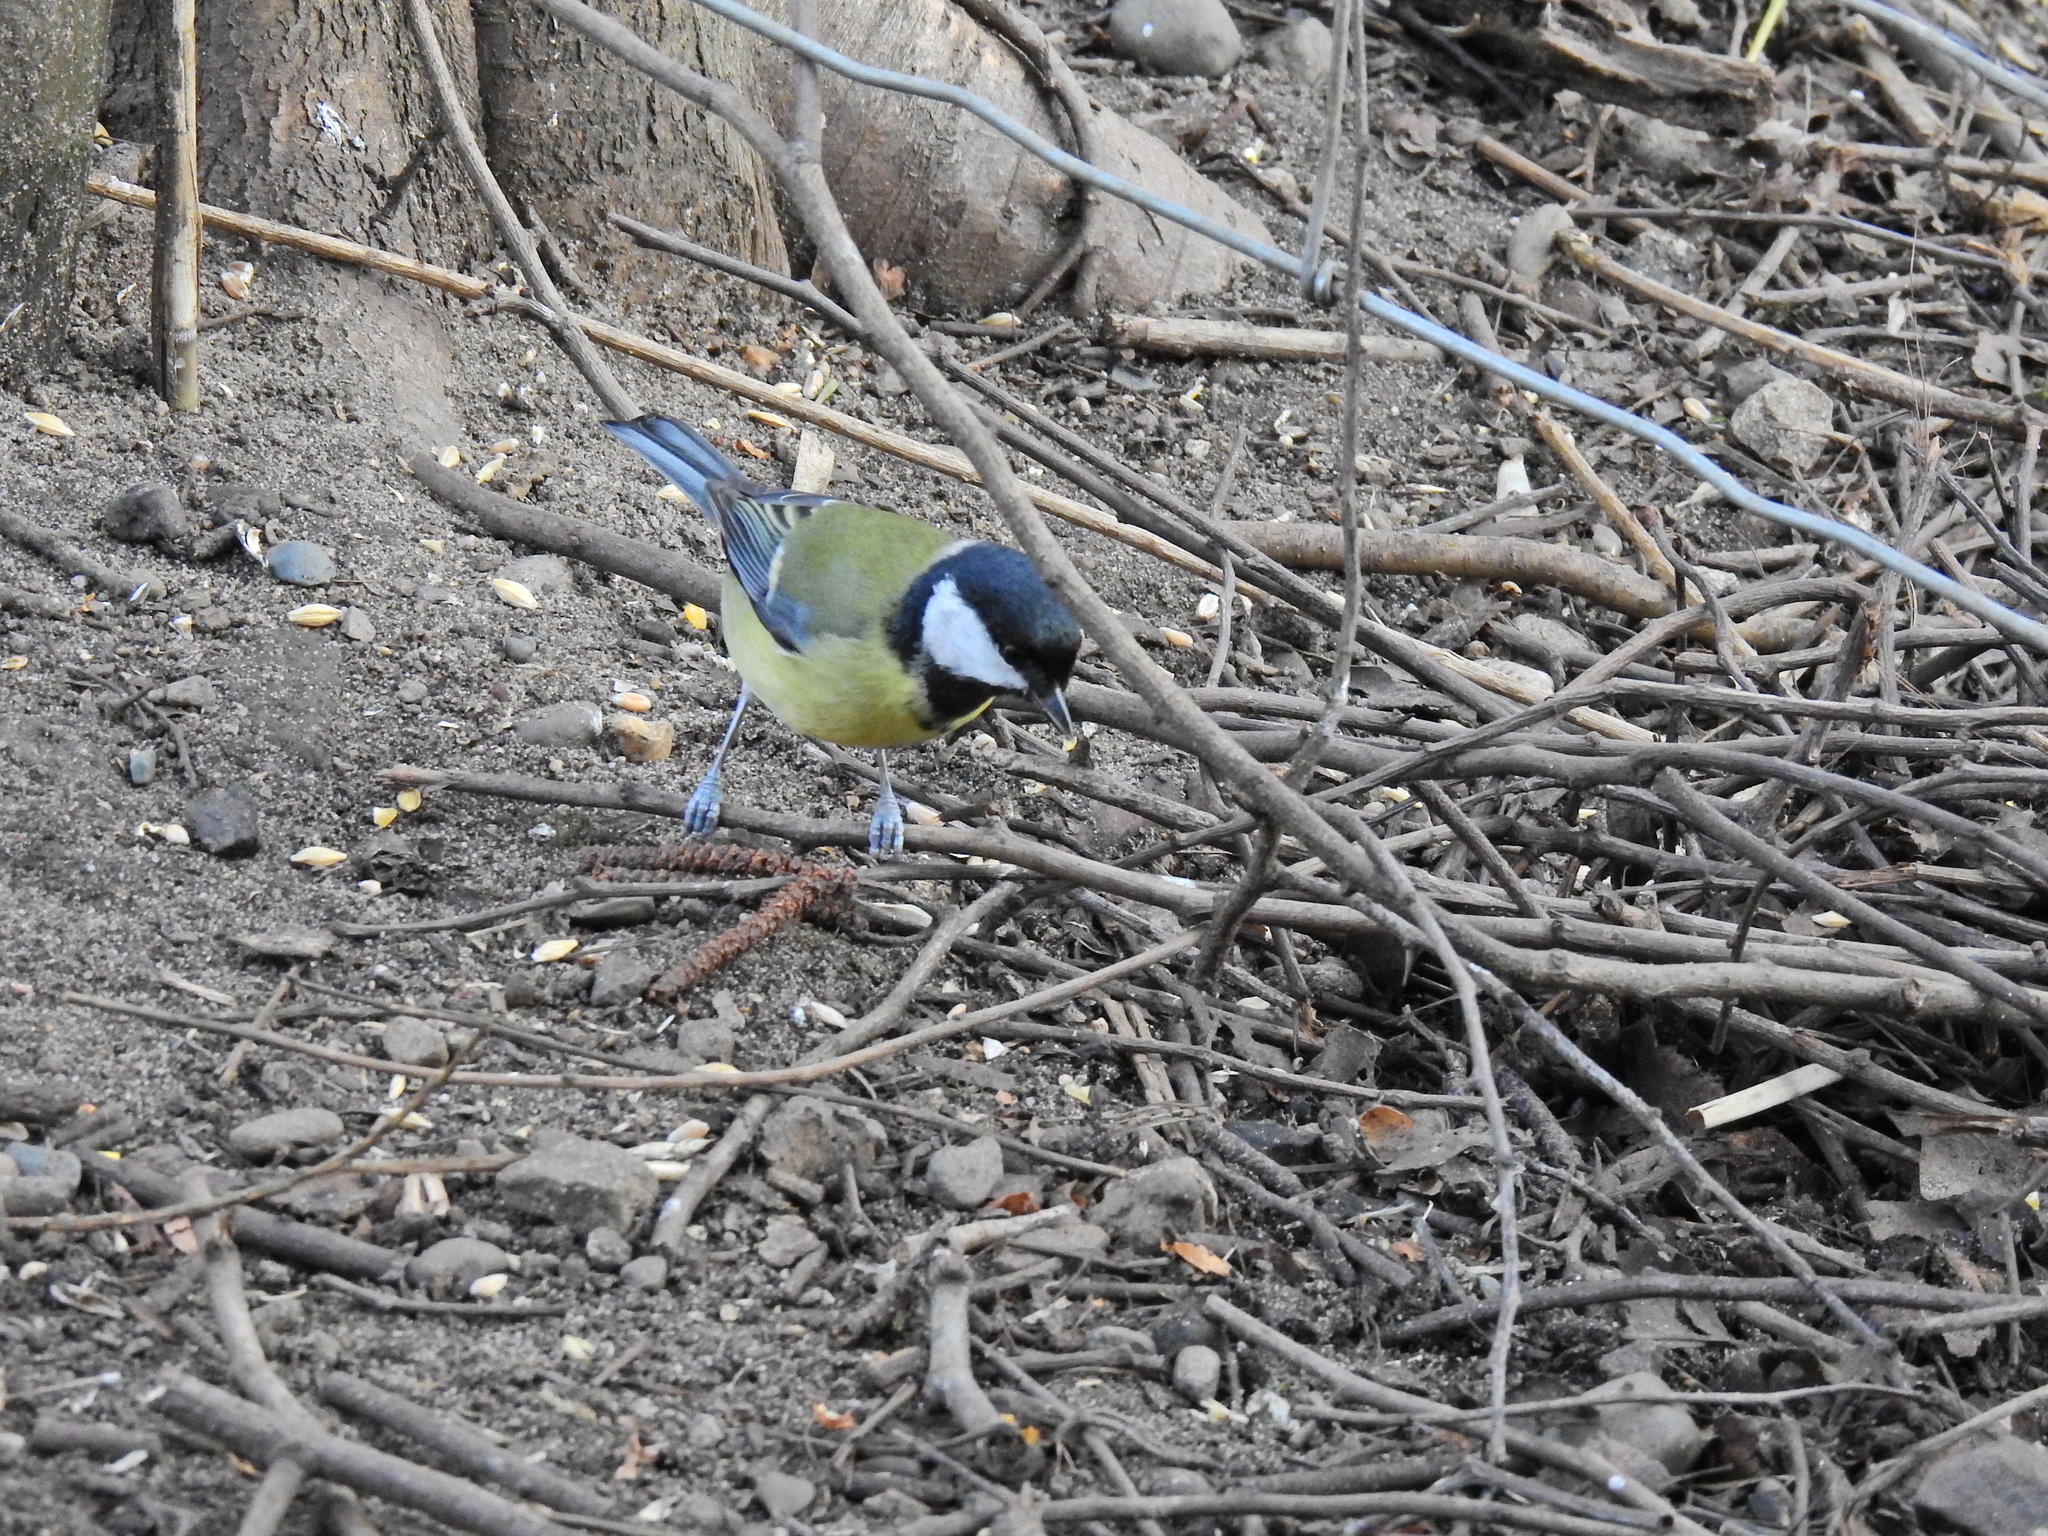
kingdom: Animalia
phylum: Chordata
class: Aves
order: Passeriformes
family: Paridae
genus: Parus
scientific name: Parus major
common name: Great tit
